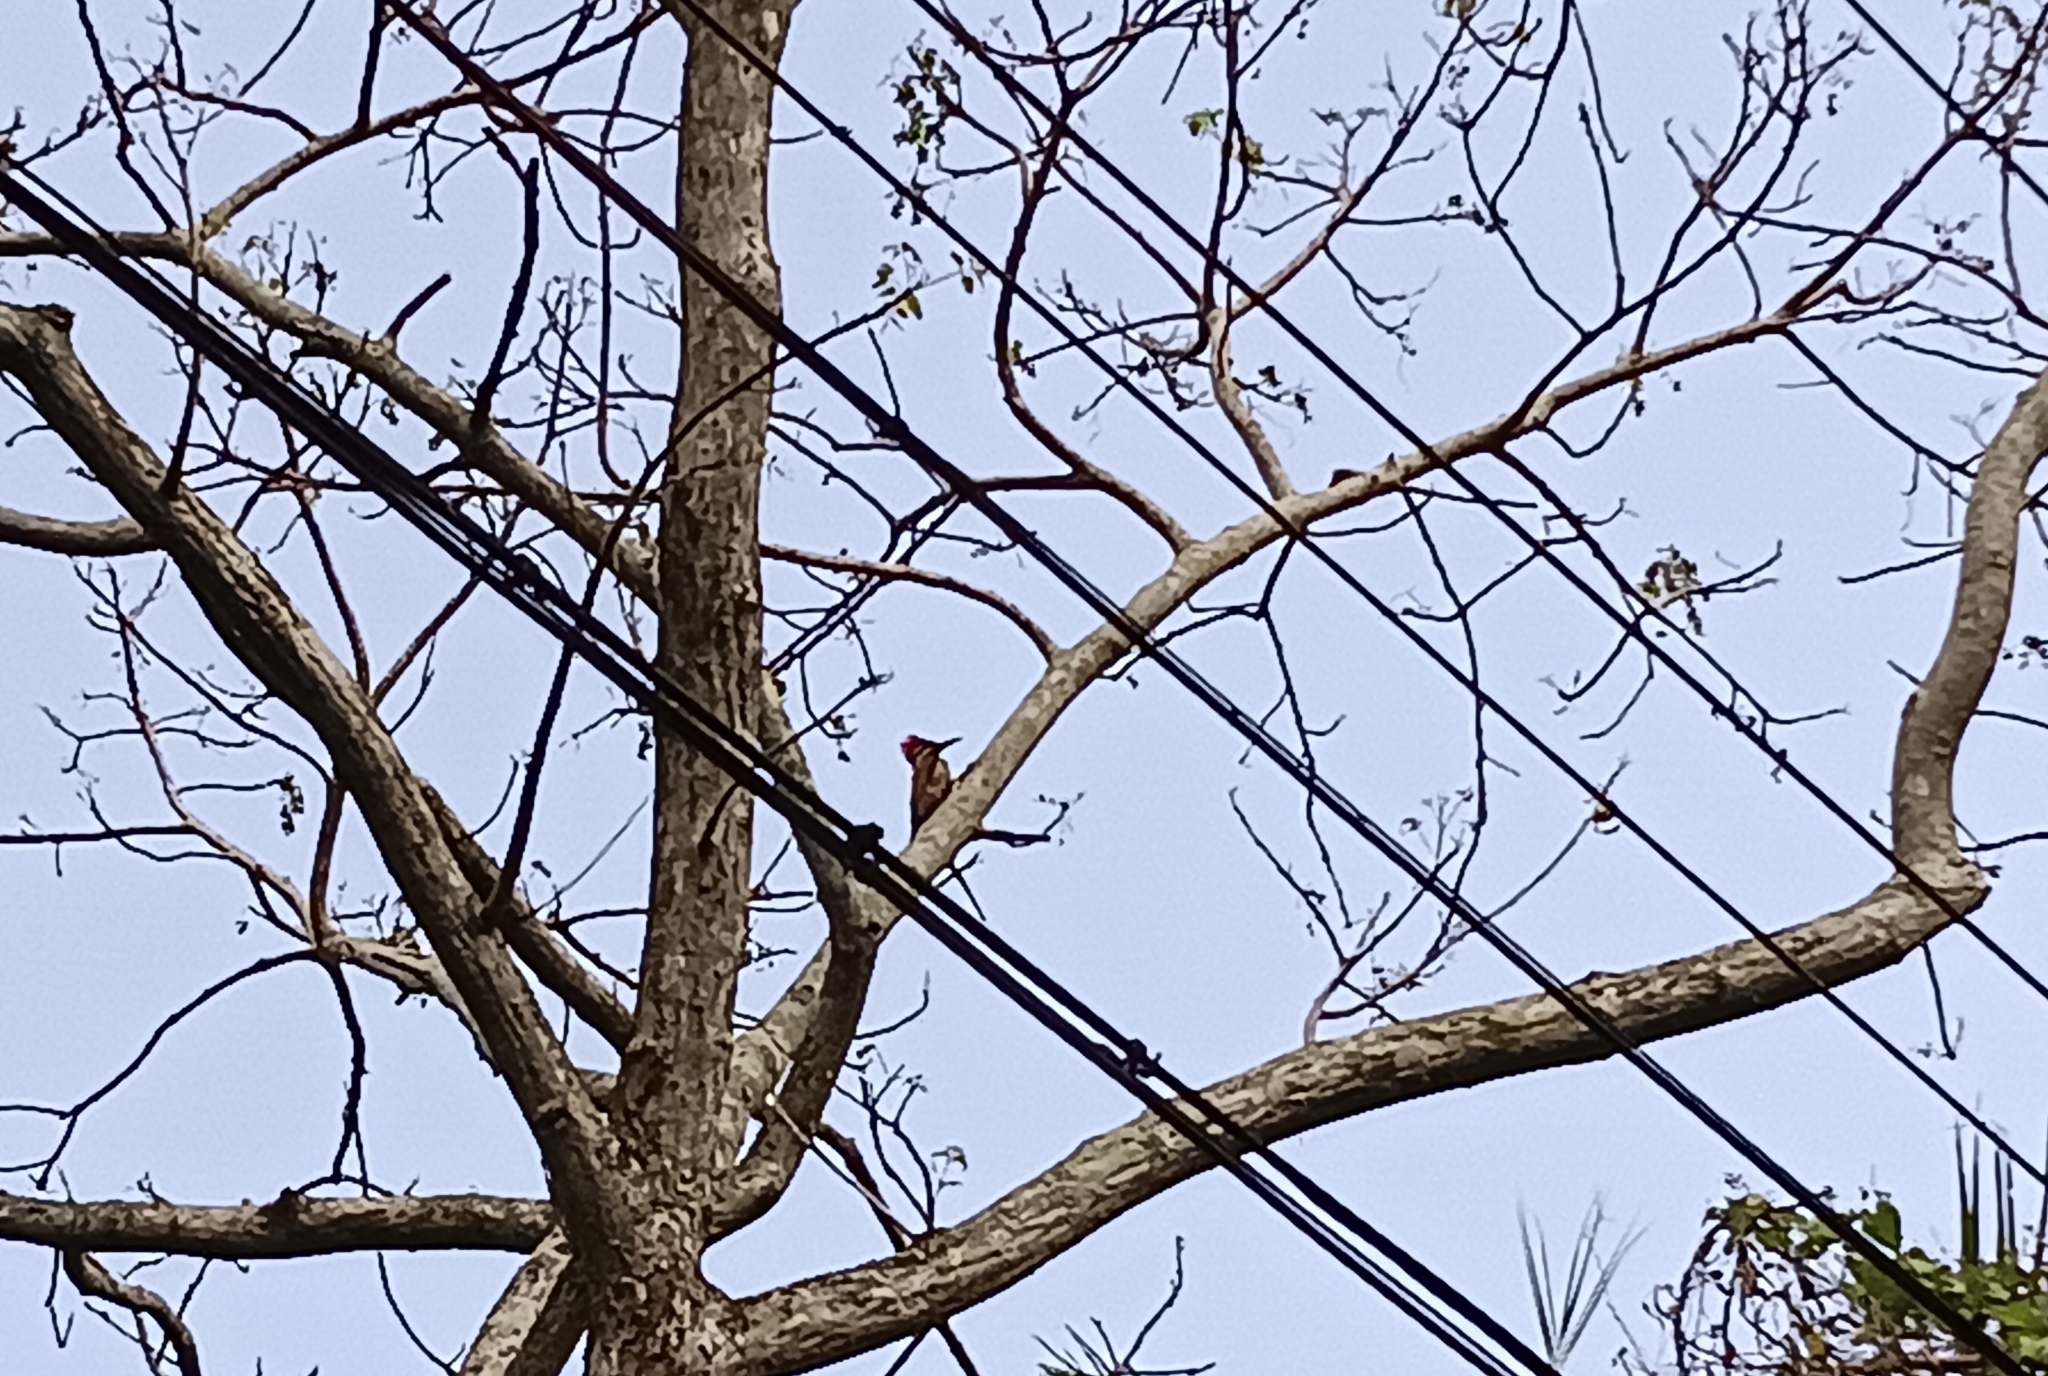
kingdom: Animalia
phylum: Chordata
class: Aves
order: Piciformes
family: Picidae
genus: Dinopium
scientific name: Dinopium benghalense
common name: Black-rumped flameback
